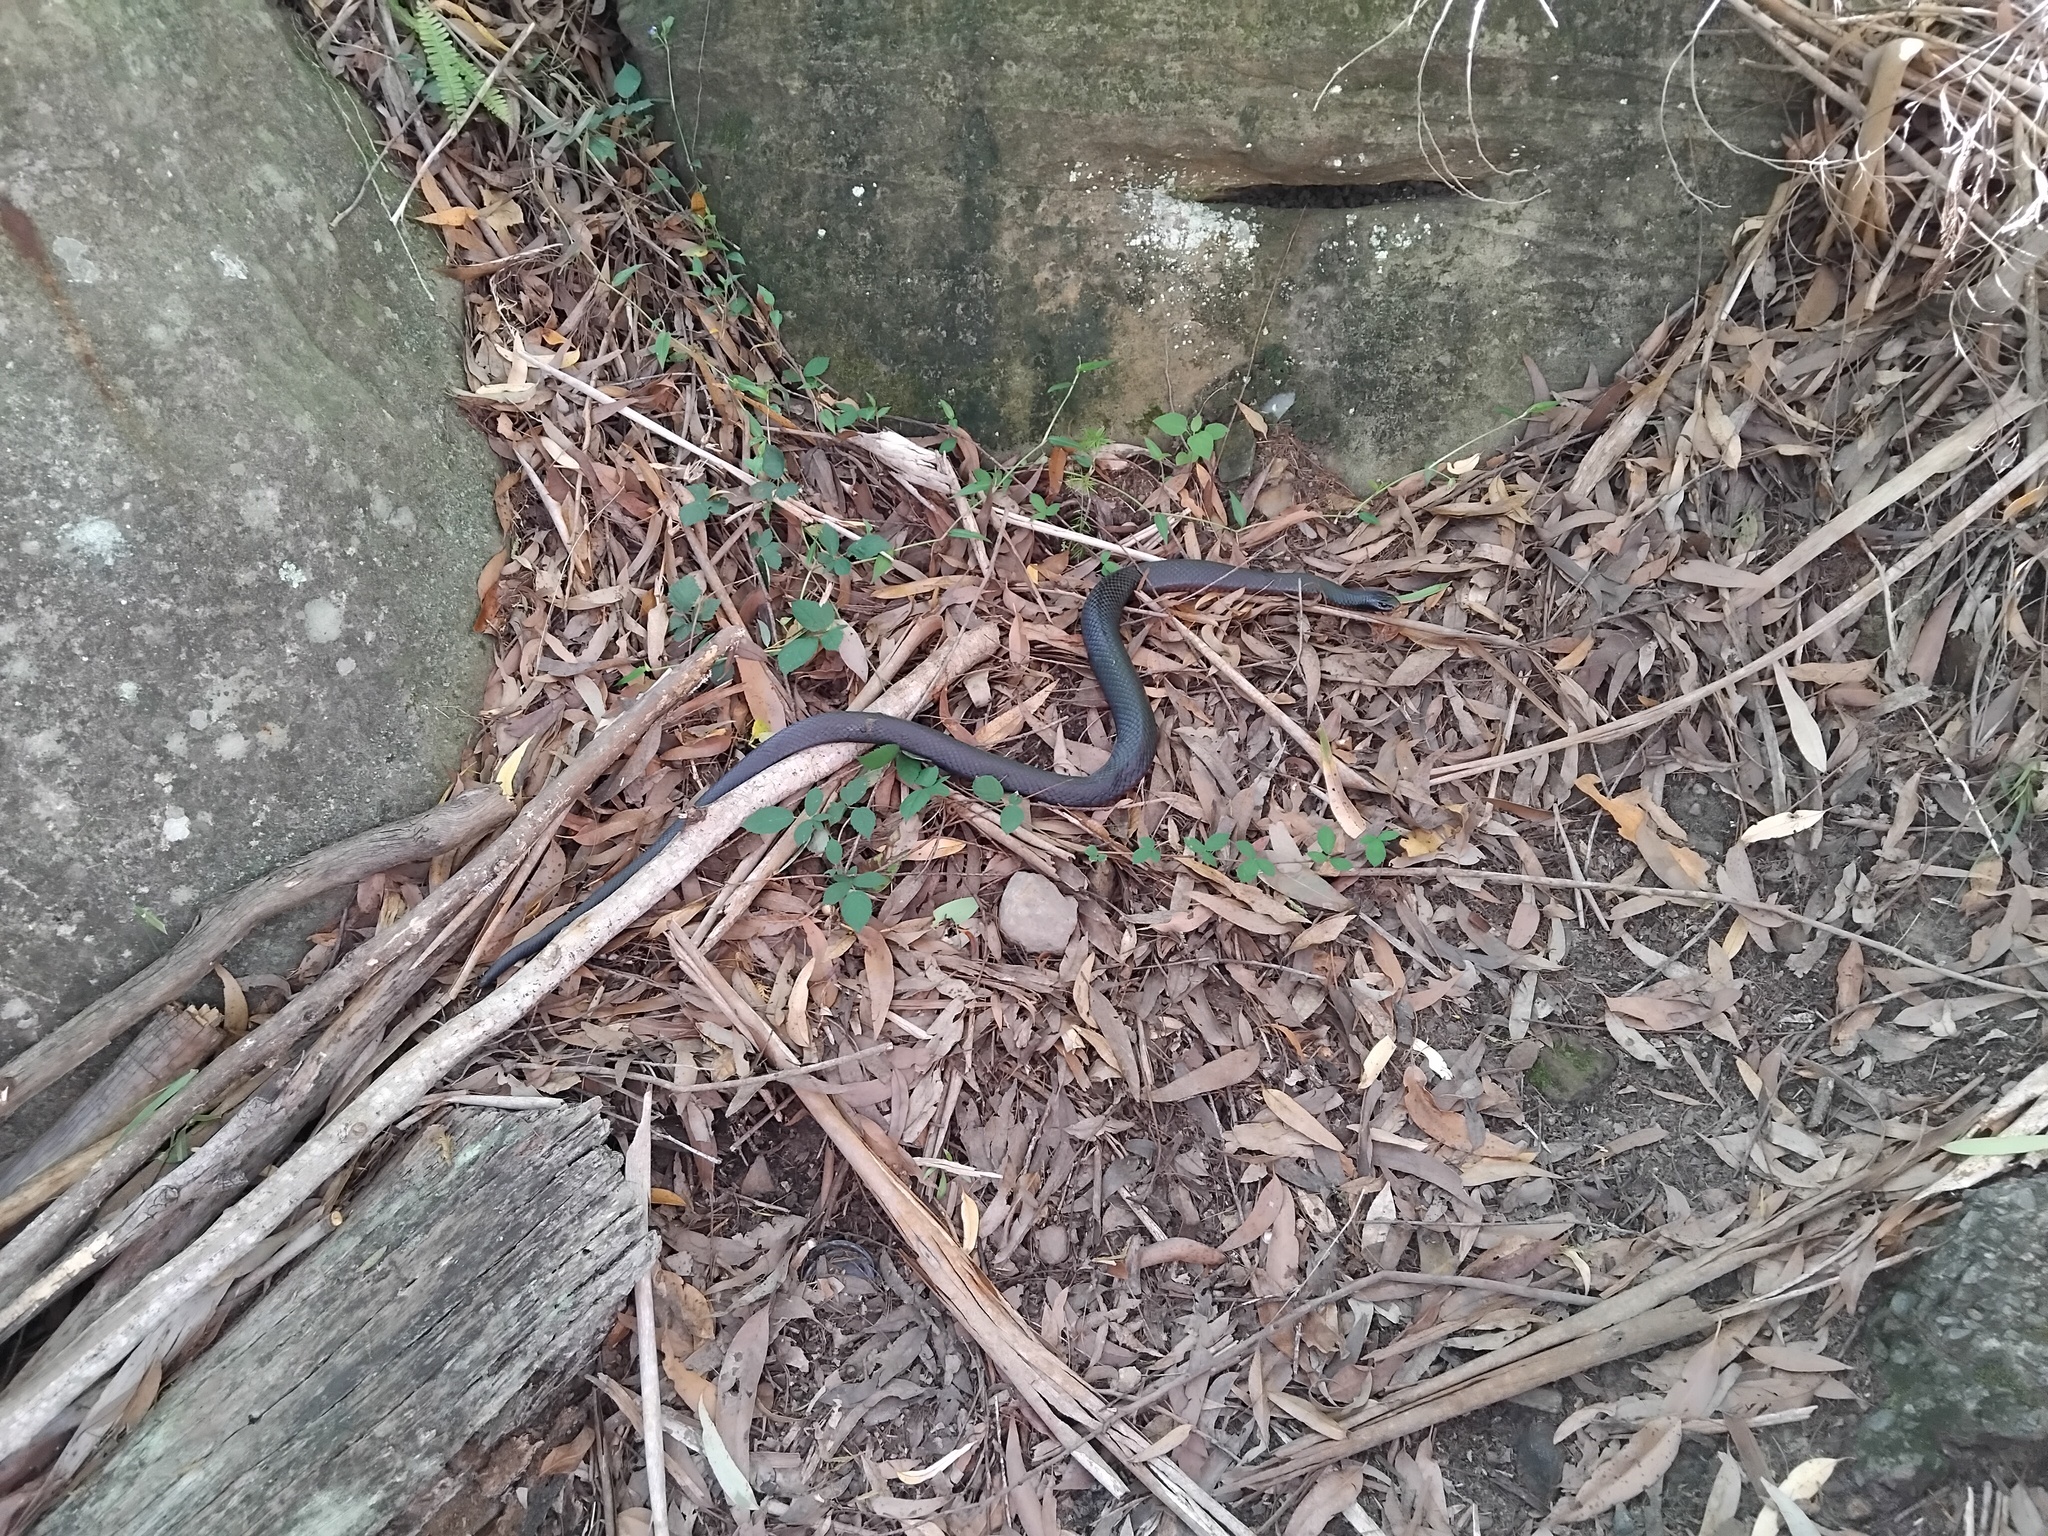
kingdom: Animalia
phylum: Chordata
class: Squamata
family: Elapidae
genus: Pseudechis
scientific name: Pseudechis porphyriacus
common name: Australian black snake
